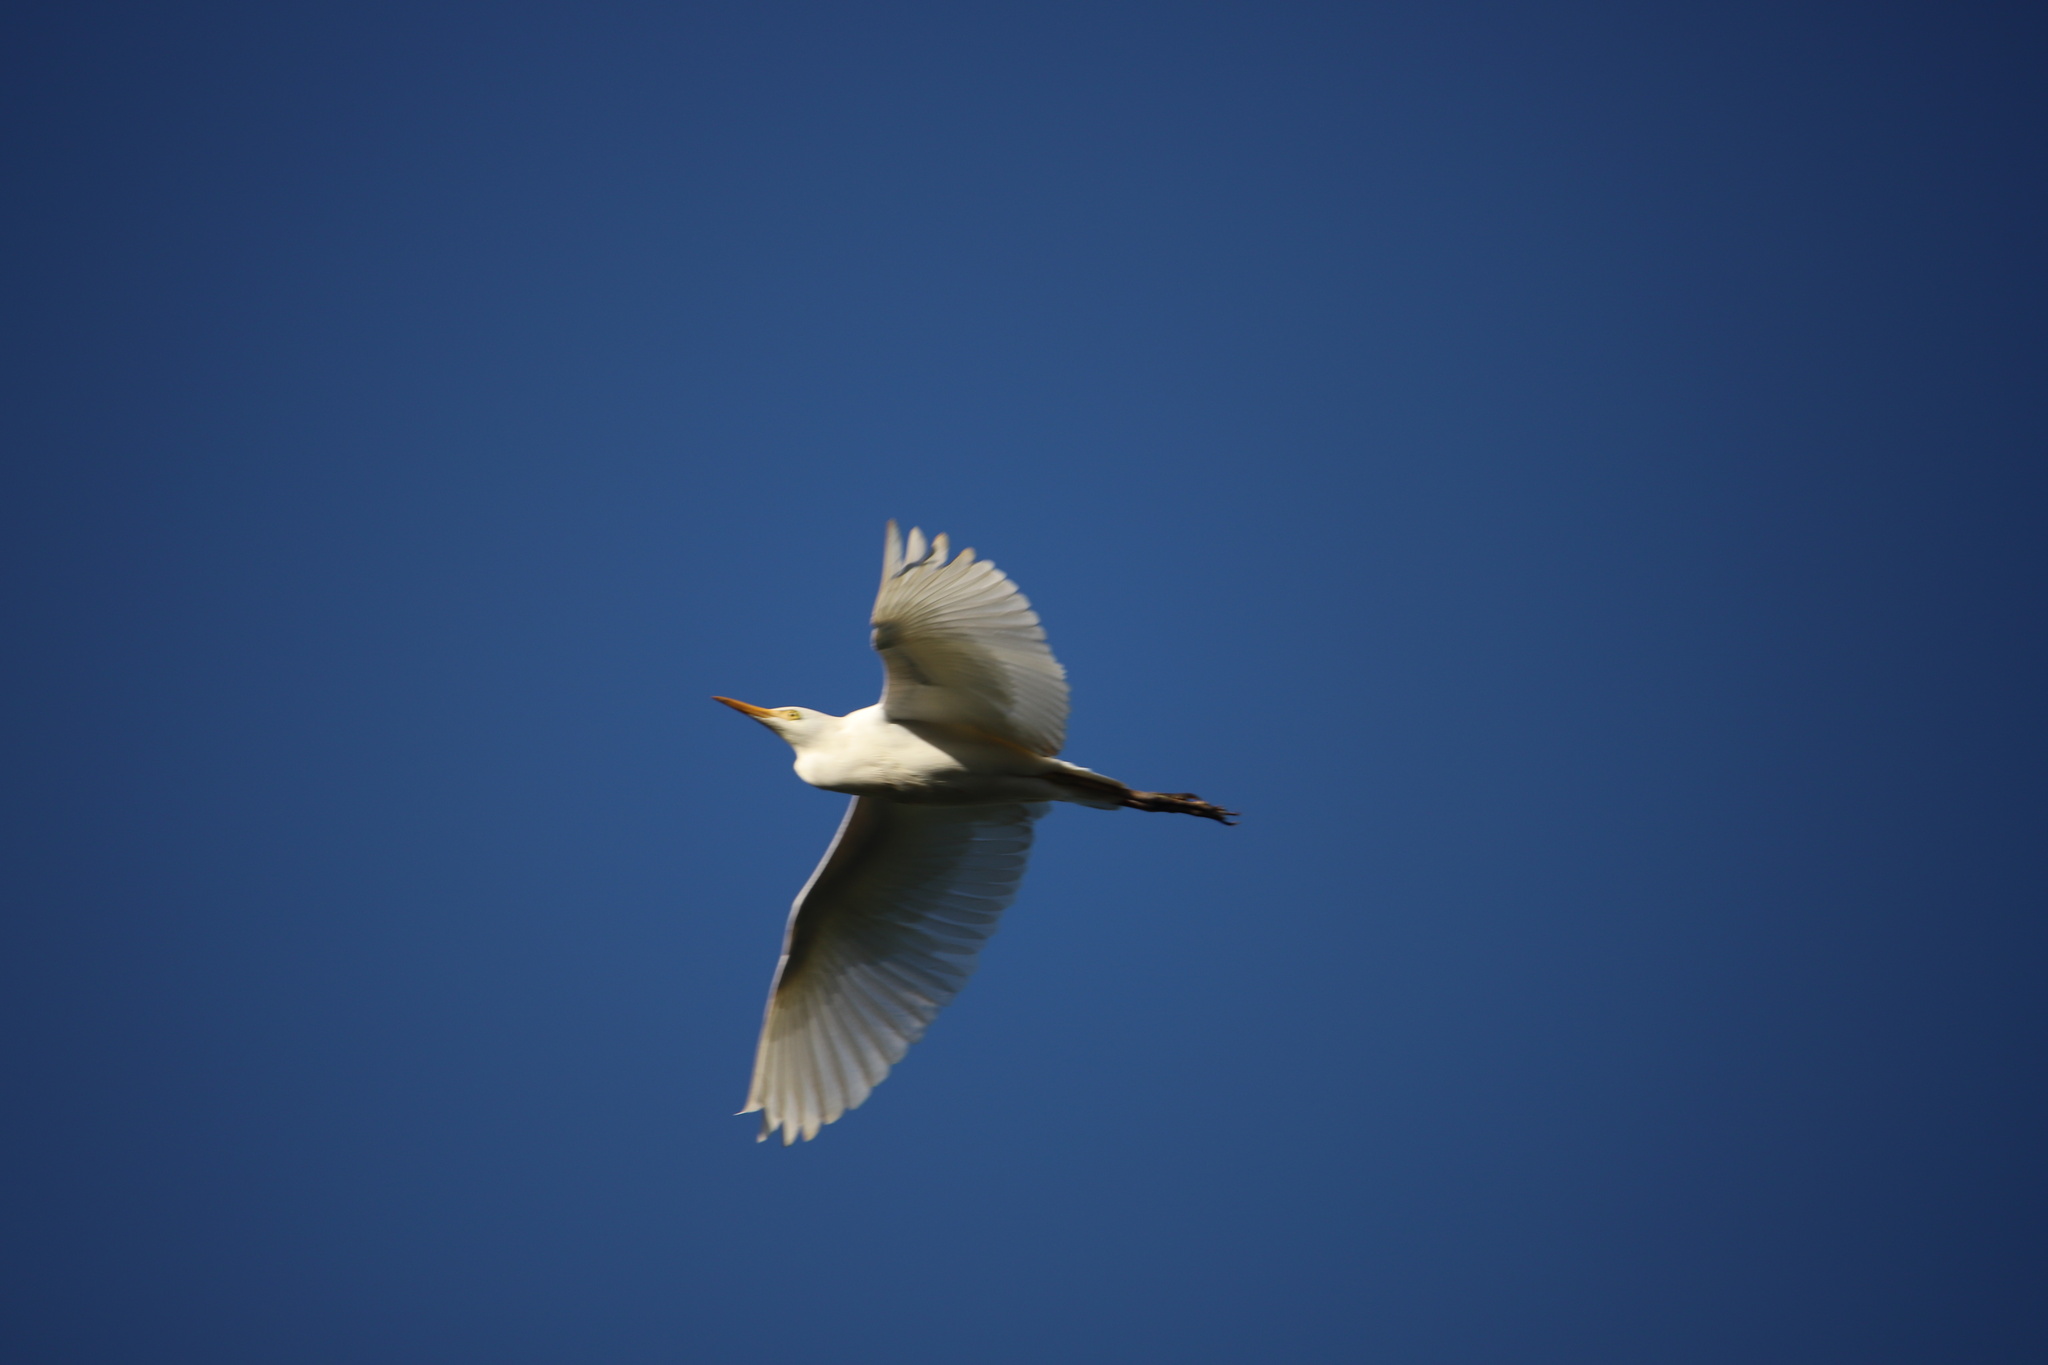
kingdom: Animalia
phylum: Chordata
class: Aves
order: Pelecaniformes
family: Ardeidae
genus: Bubulcus
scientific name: Bubulcus ibis
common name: Cattle egret
